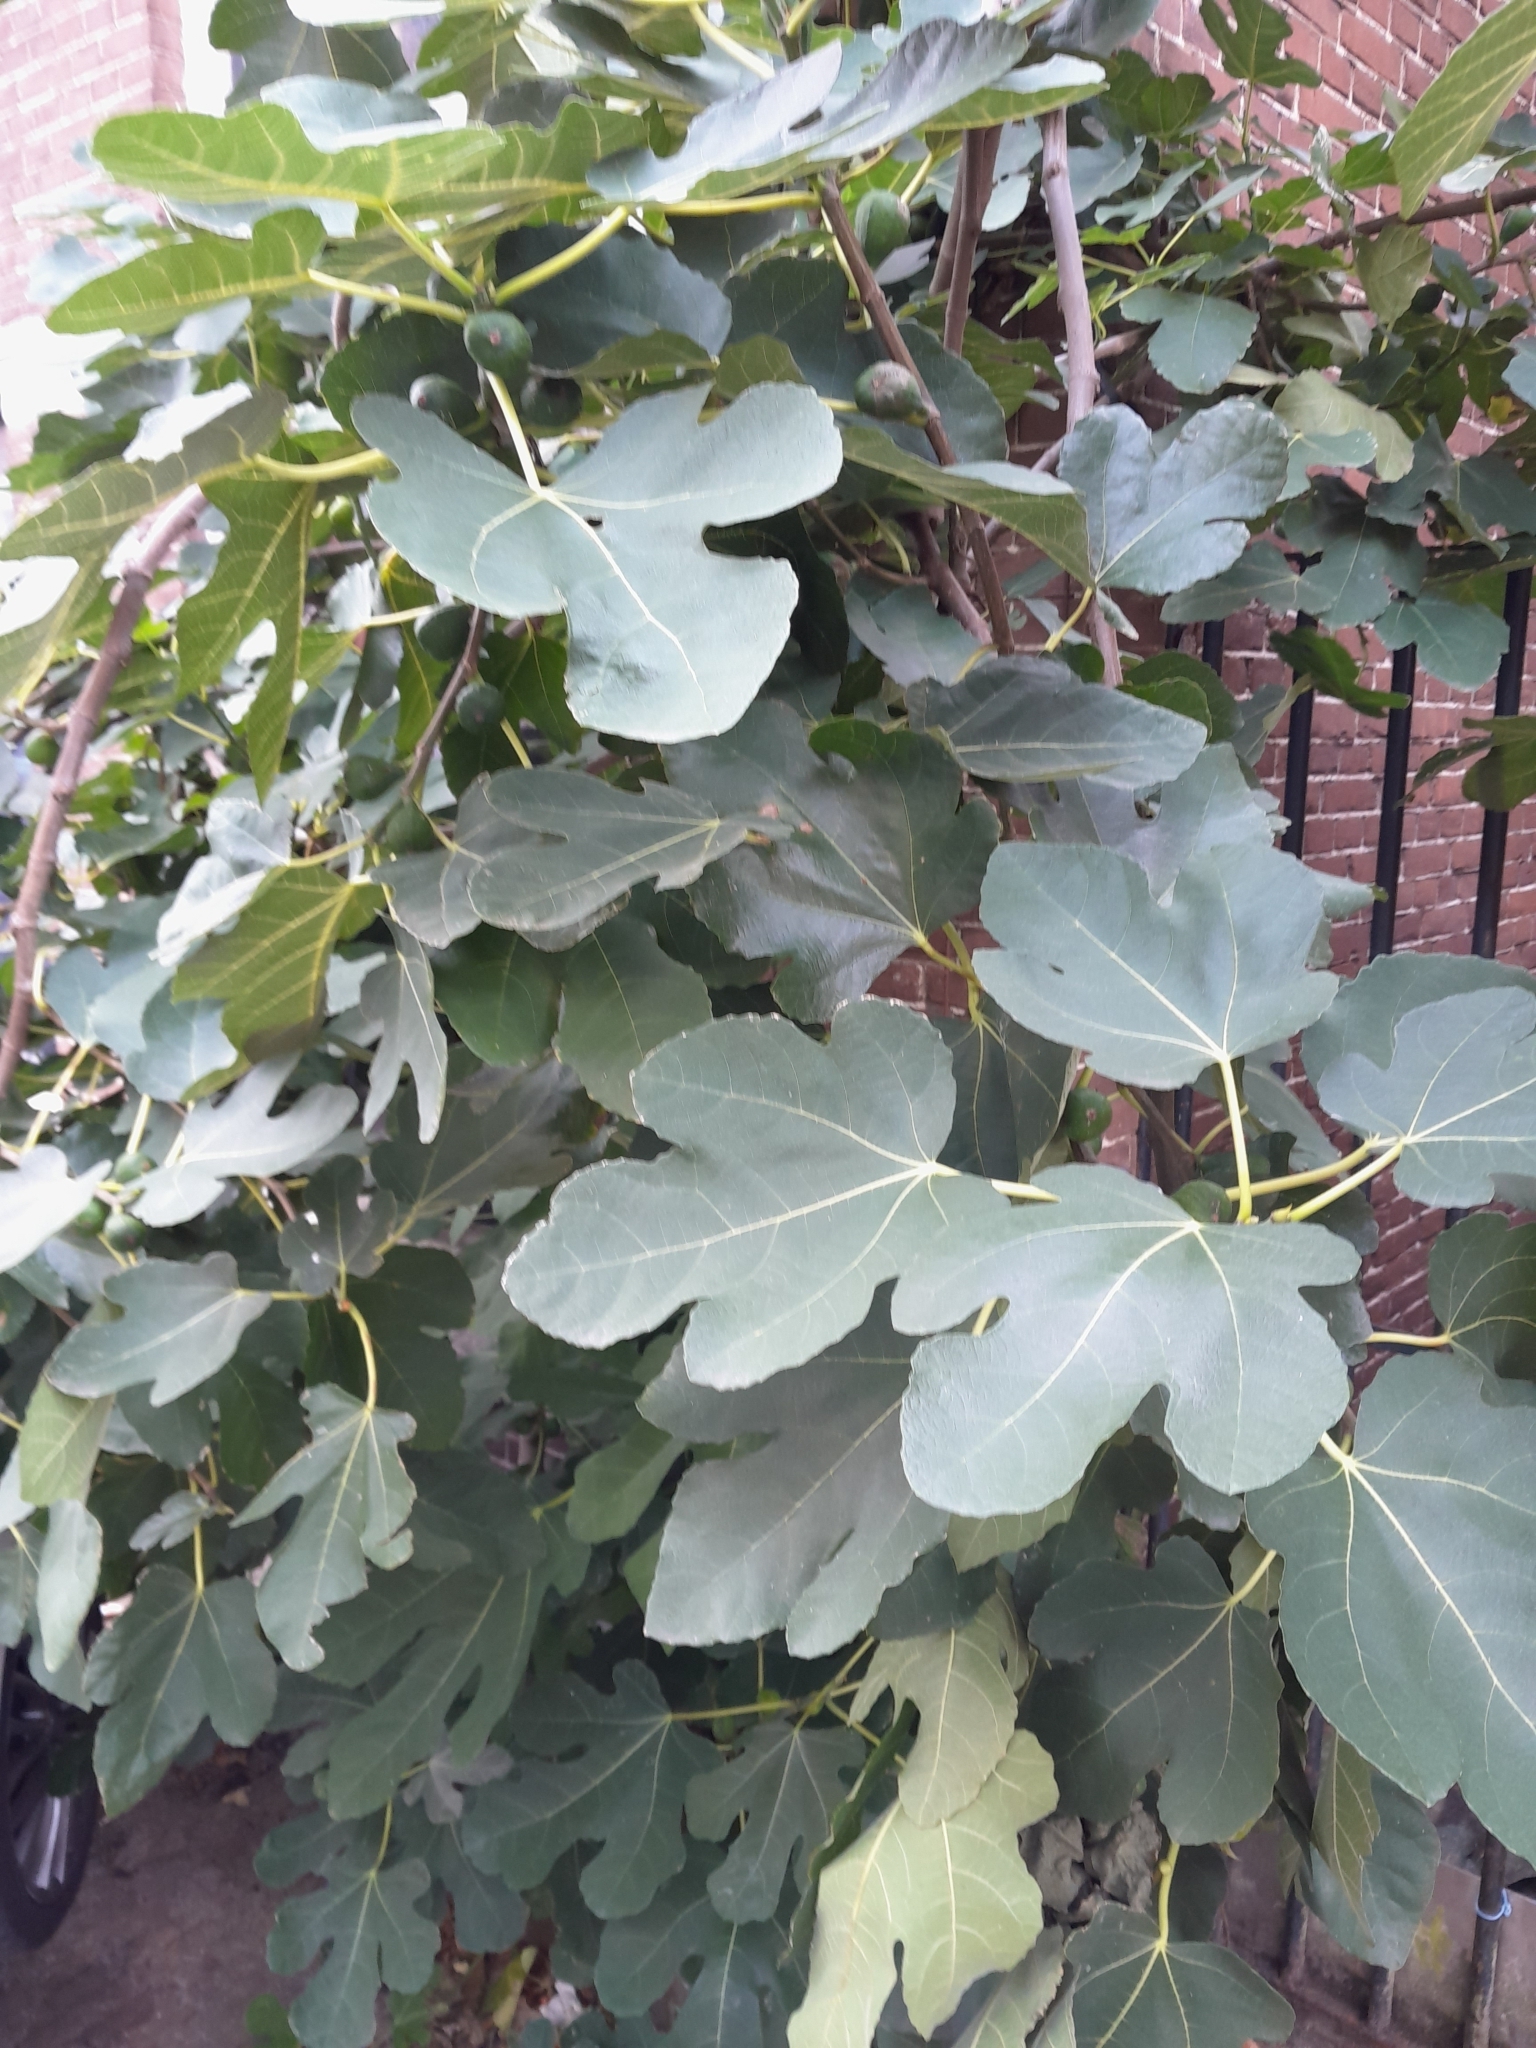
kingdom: Plantae
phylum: Tracheophyta
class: Magnoliopsida
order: Rosales
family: Moraceae
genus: Ficus
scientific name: Ficus carica
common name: Fig
